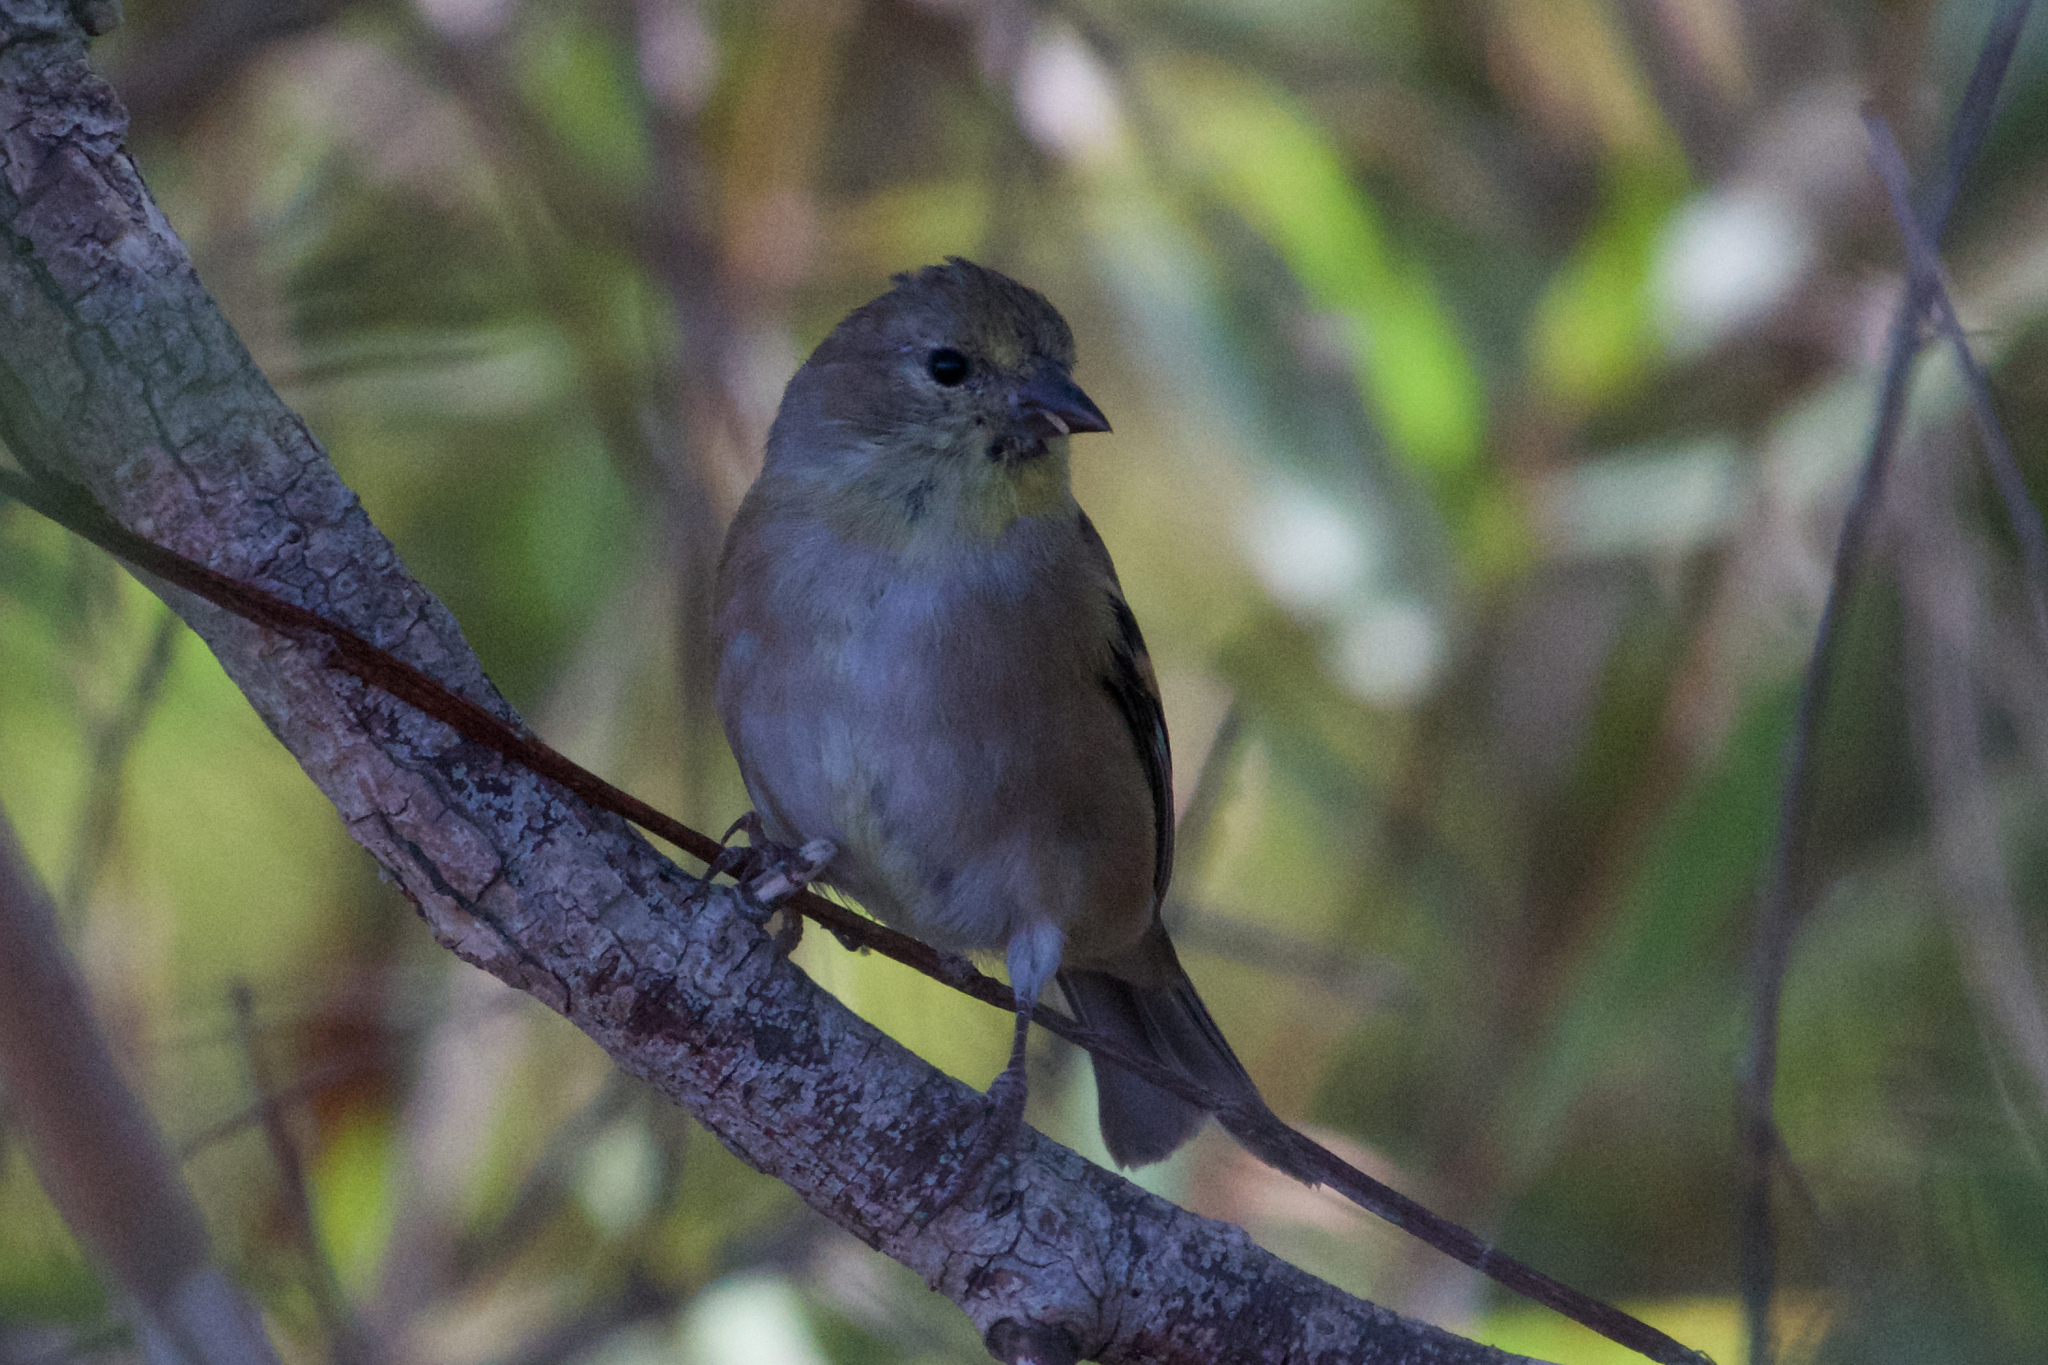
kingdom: Animalia
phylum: Chordata
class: Aves
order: Passeriformes
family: Fringillidae
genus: Spinus
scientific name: Spinus tristis
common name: American goldfinch
